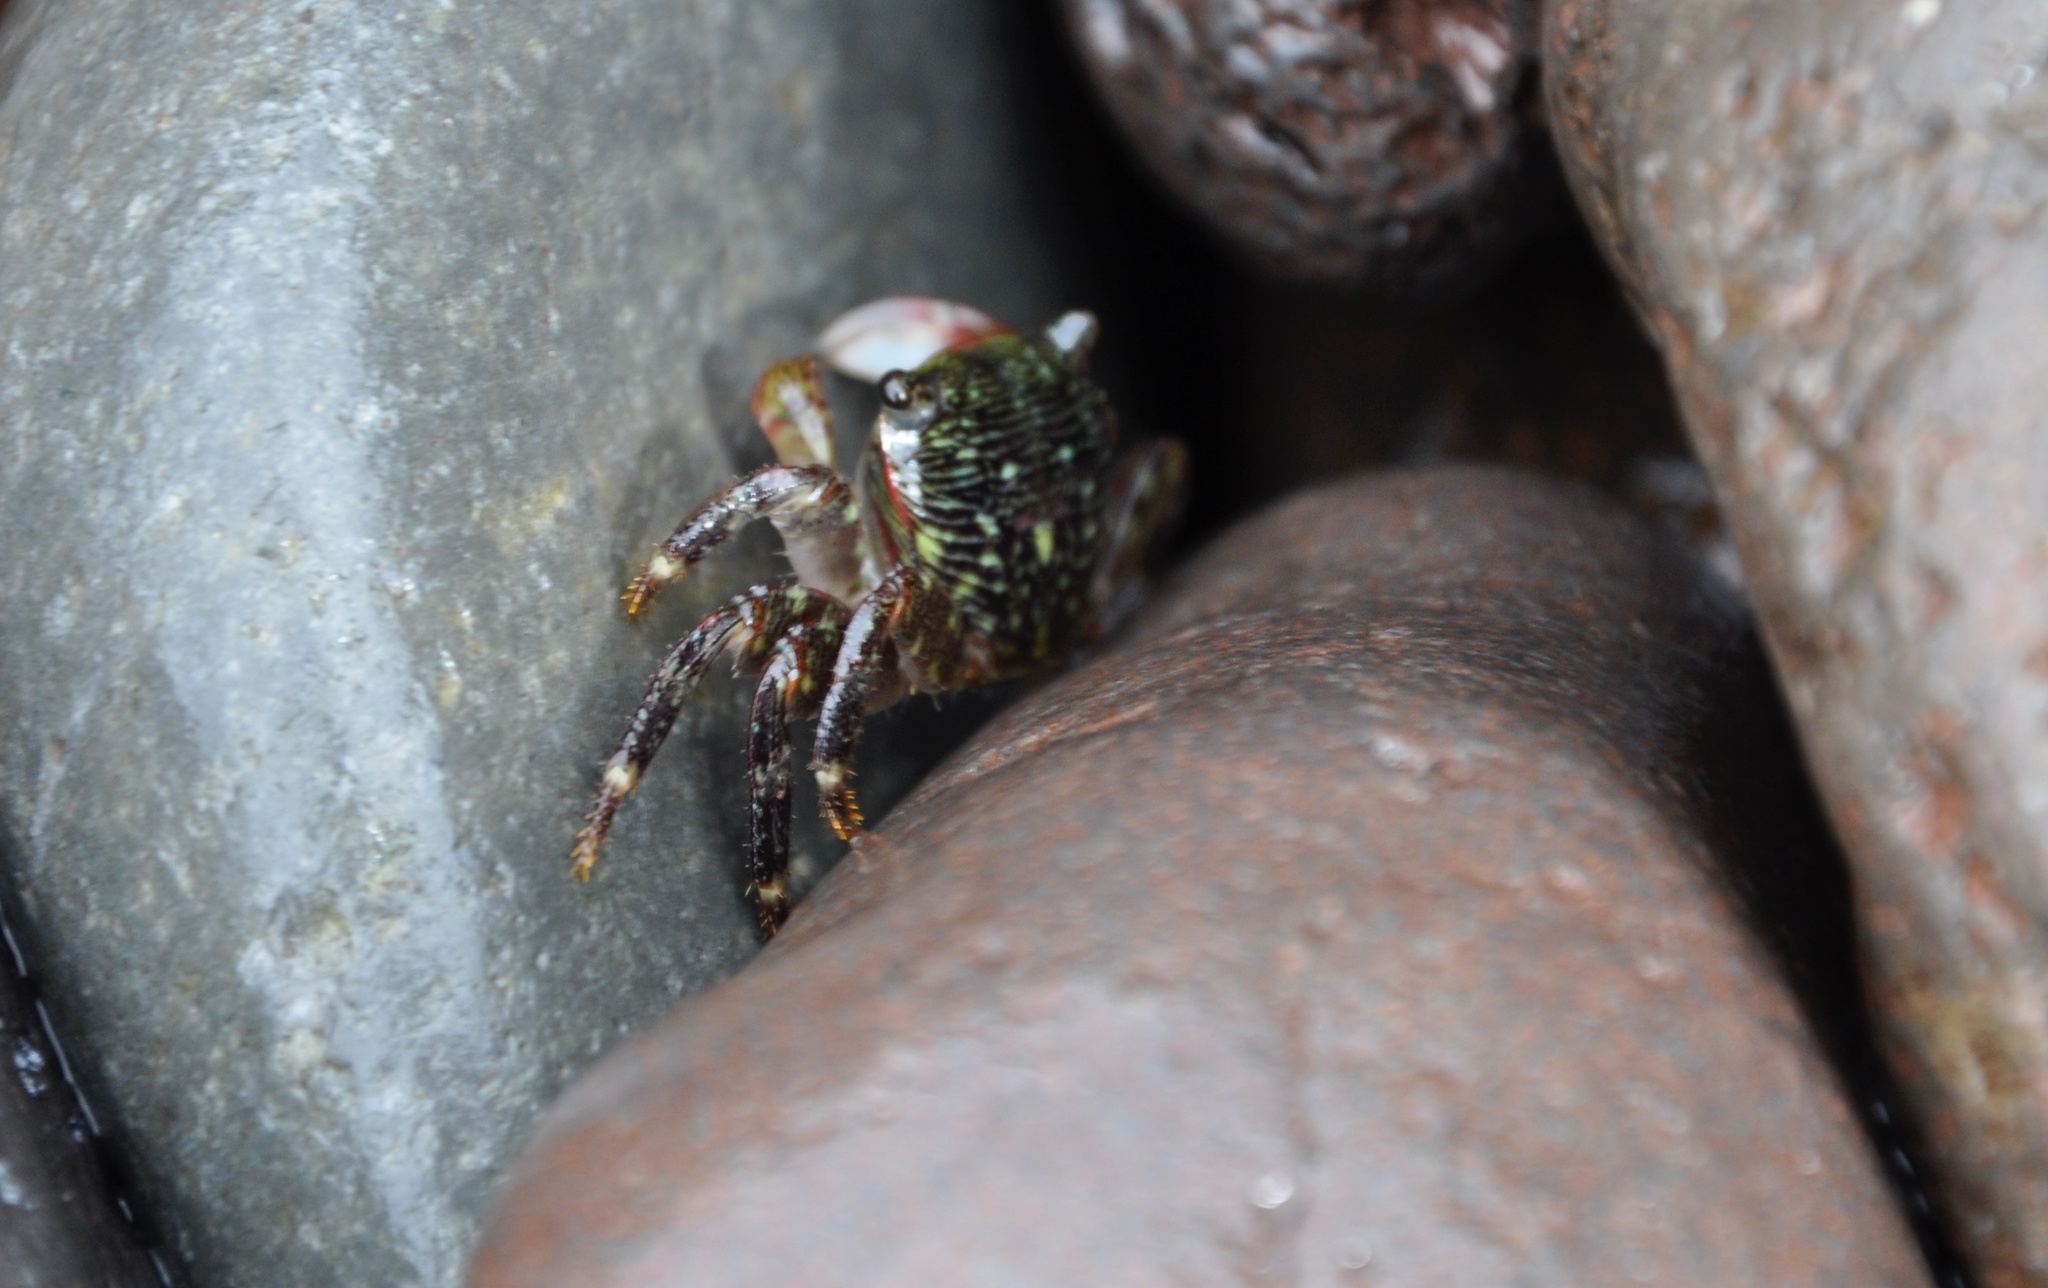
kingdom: Animalia
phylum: Arthropoda
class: Malacostraca
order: Decapoda
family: Grapsidae
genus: Pachygrapsus
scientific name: Pachygrapsus crassipes
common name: Striped shore crab
